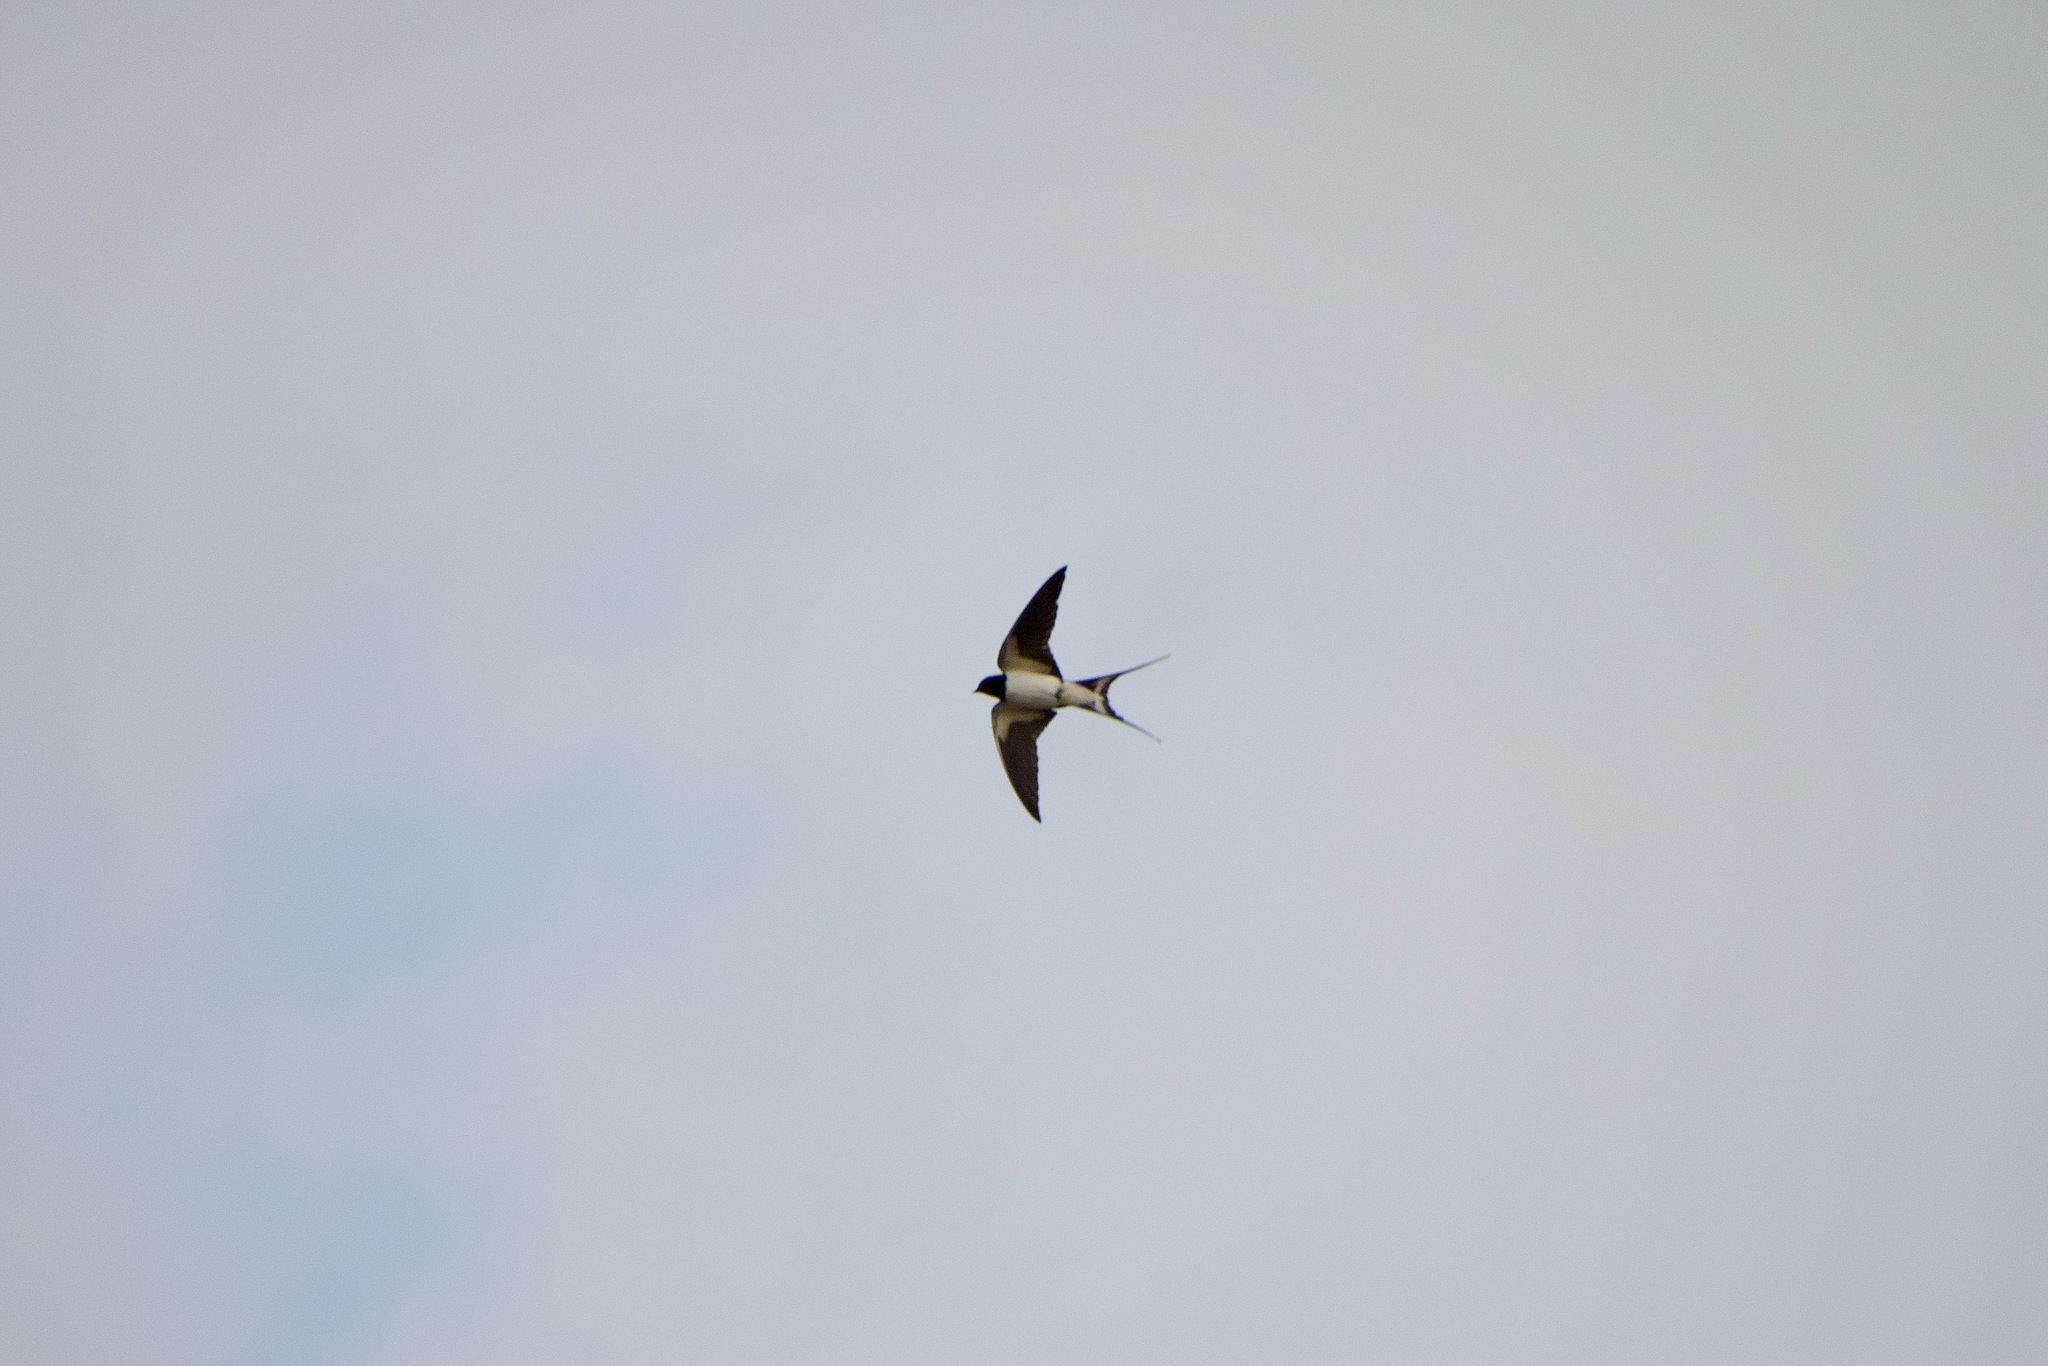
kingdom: Animalia
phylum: Chordata
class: Aves
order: Passeriformes
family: Hirundinidae
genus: Hirundo
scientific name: Hirundo rustica
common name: Barn swallow
